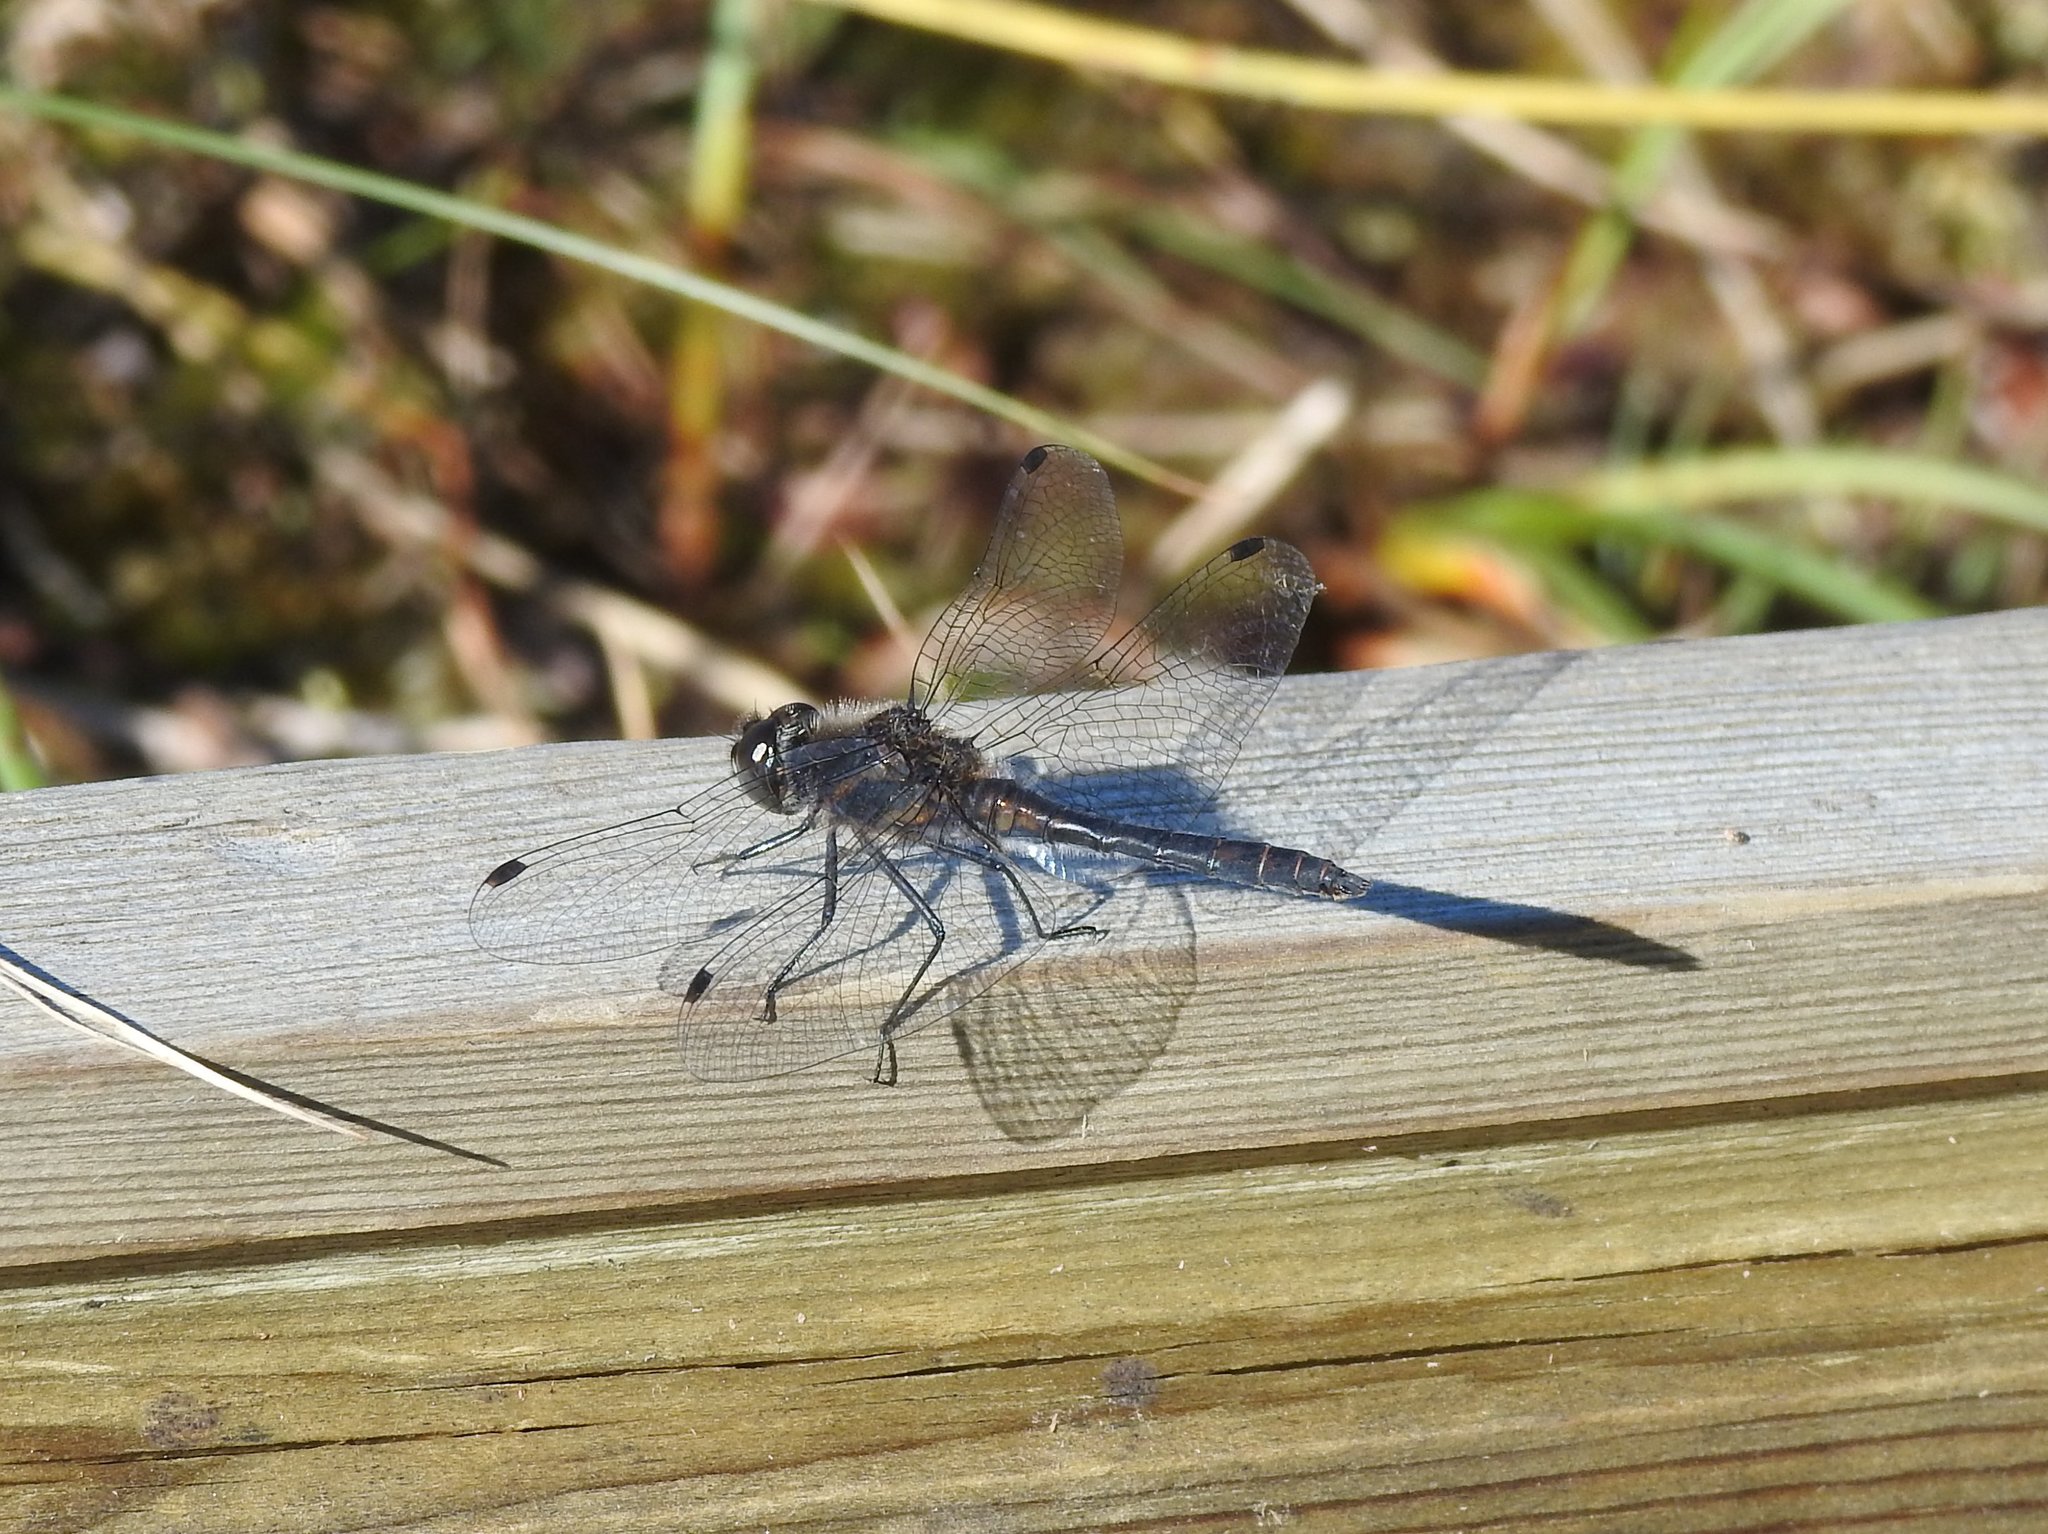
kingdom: Animalia
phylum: Arthropoda
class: Insecta
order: Odonata
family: Libellulidae
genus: Sympetrum
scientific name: Sympetrum danae
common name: Black darter
